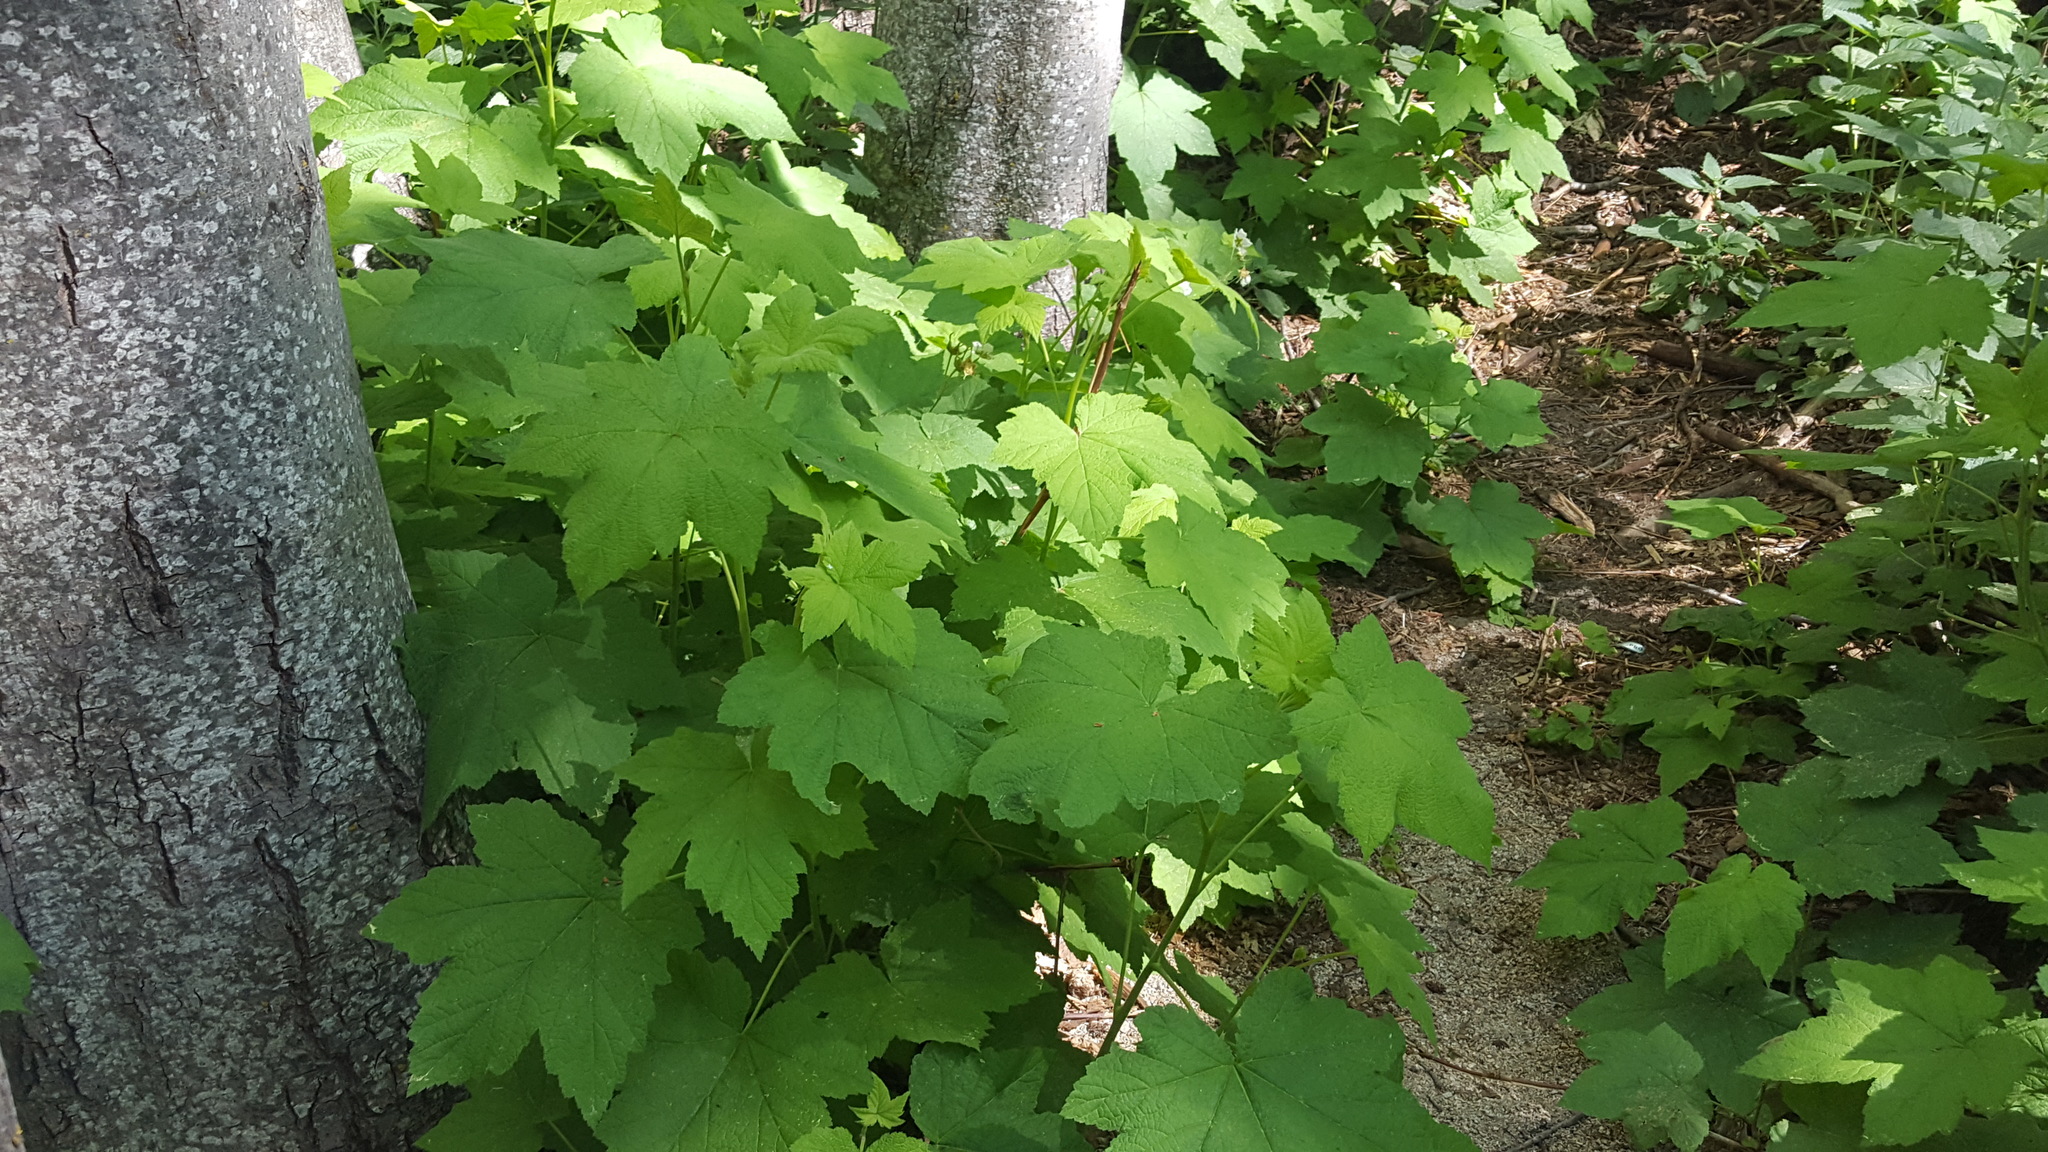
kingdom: Plantae
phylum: Tracheophyta
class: Magnoliopsida
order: Rosales
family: Rosaceae
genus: Rubus
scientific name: Rubus parviflorus
